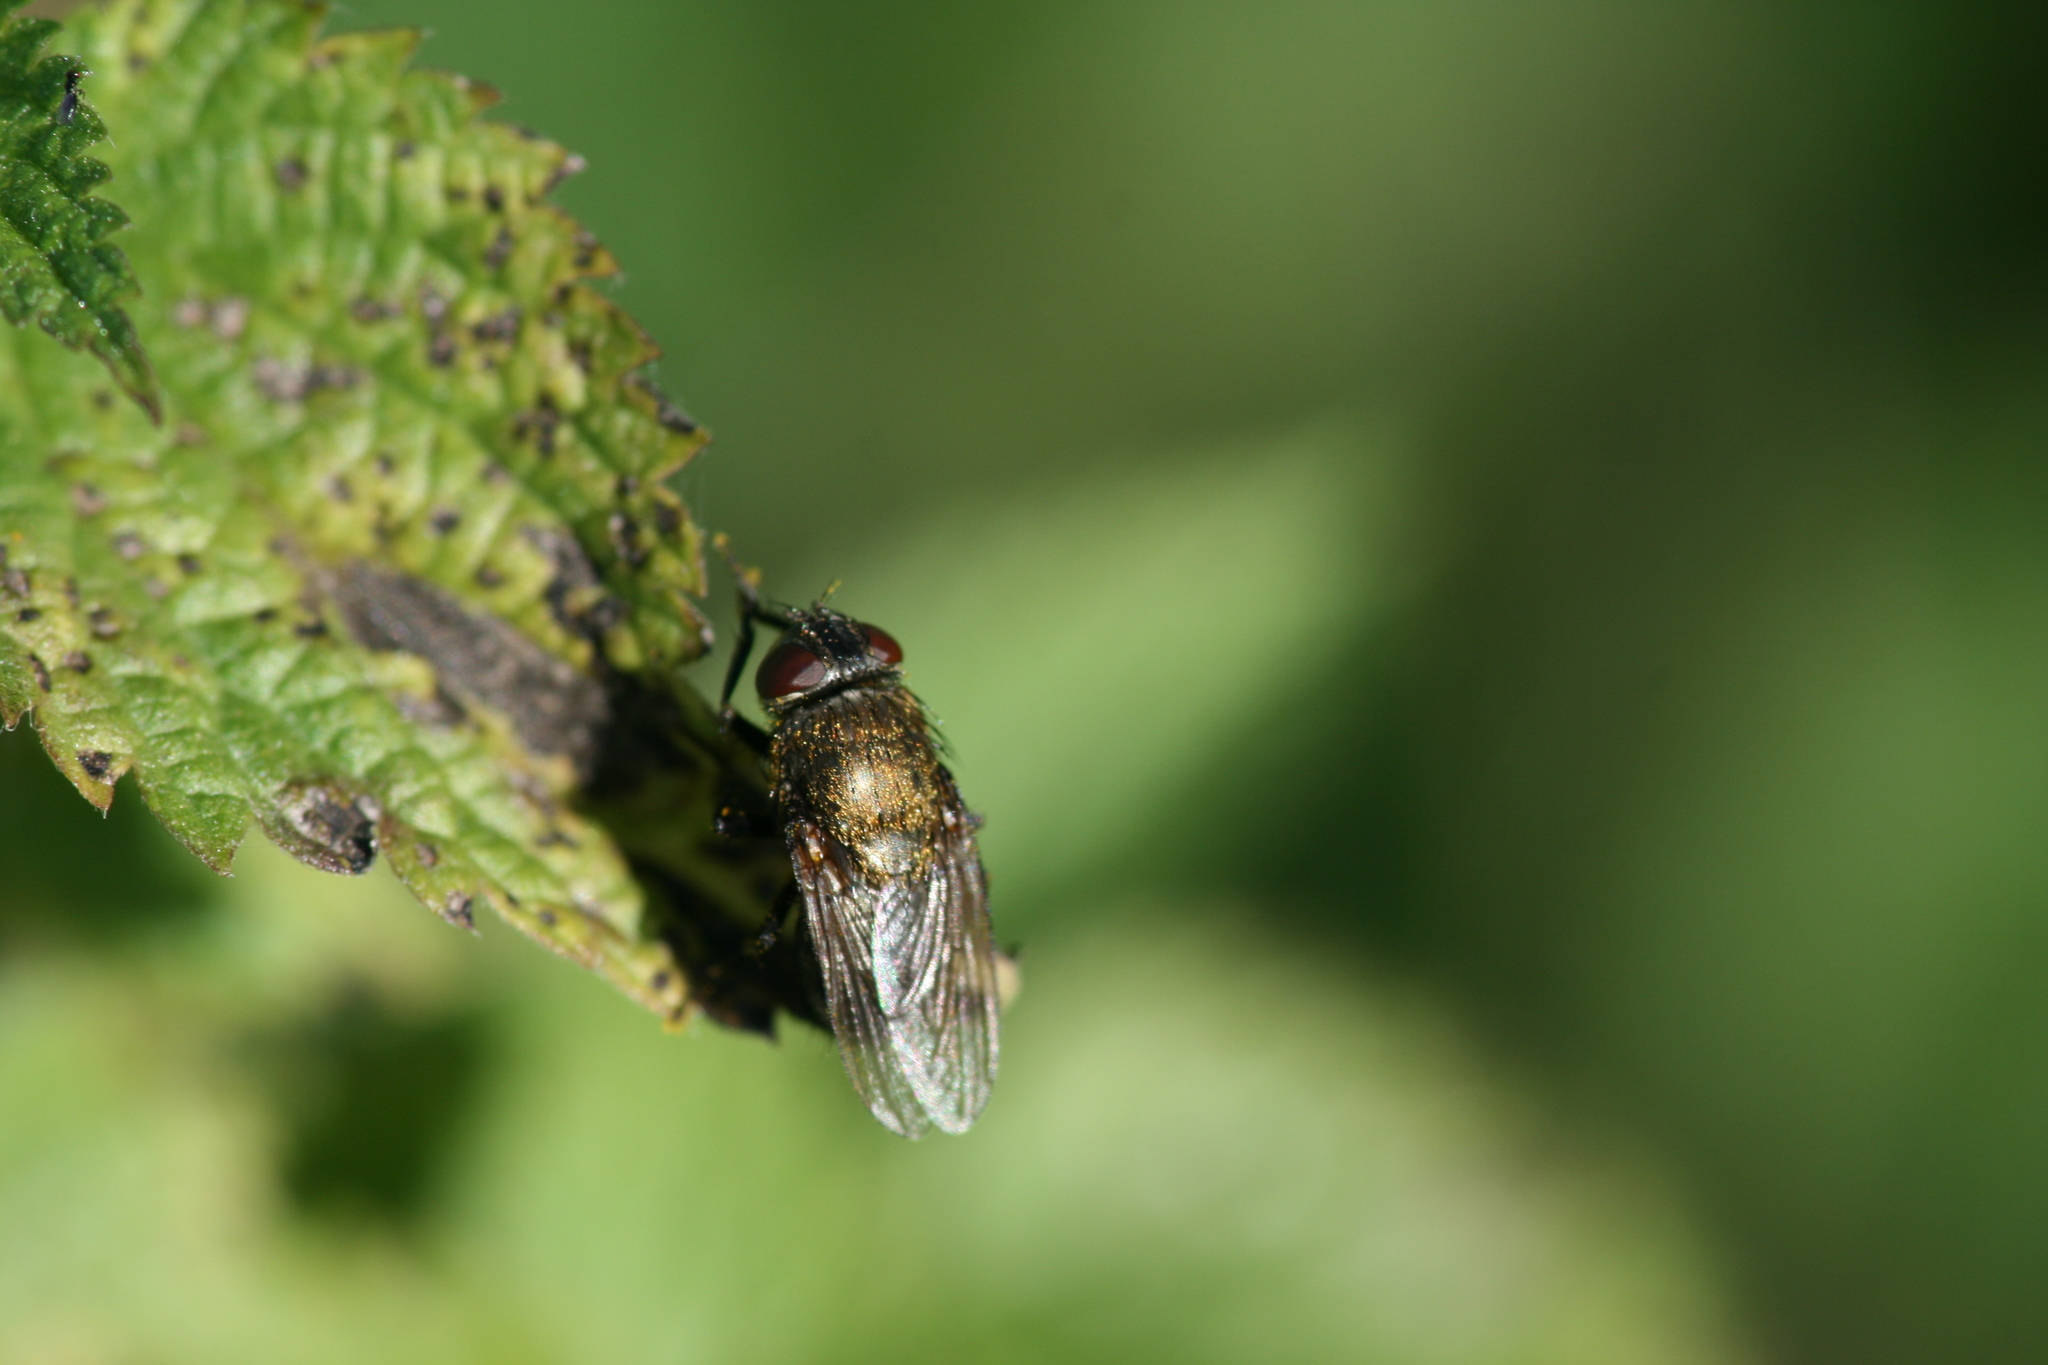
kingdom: Animalia
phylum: Arthropoda
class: Insecta
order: Diptera
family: Polleniidae
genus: Pollenia
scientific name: Pollenia amentaria
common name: Black-bellied clusterfly
